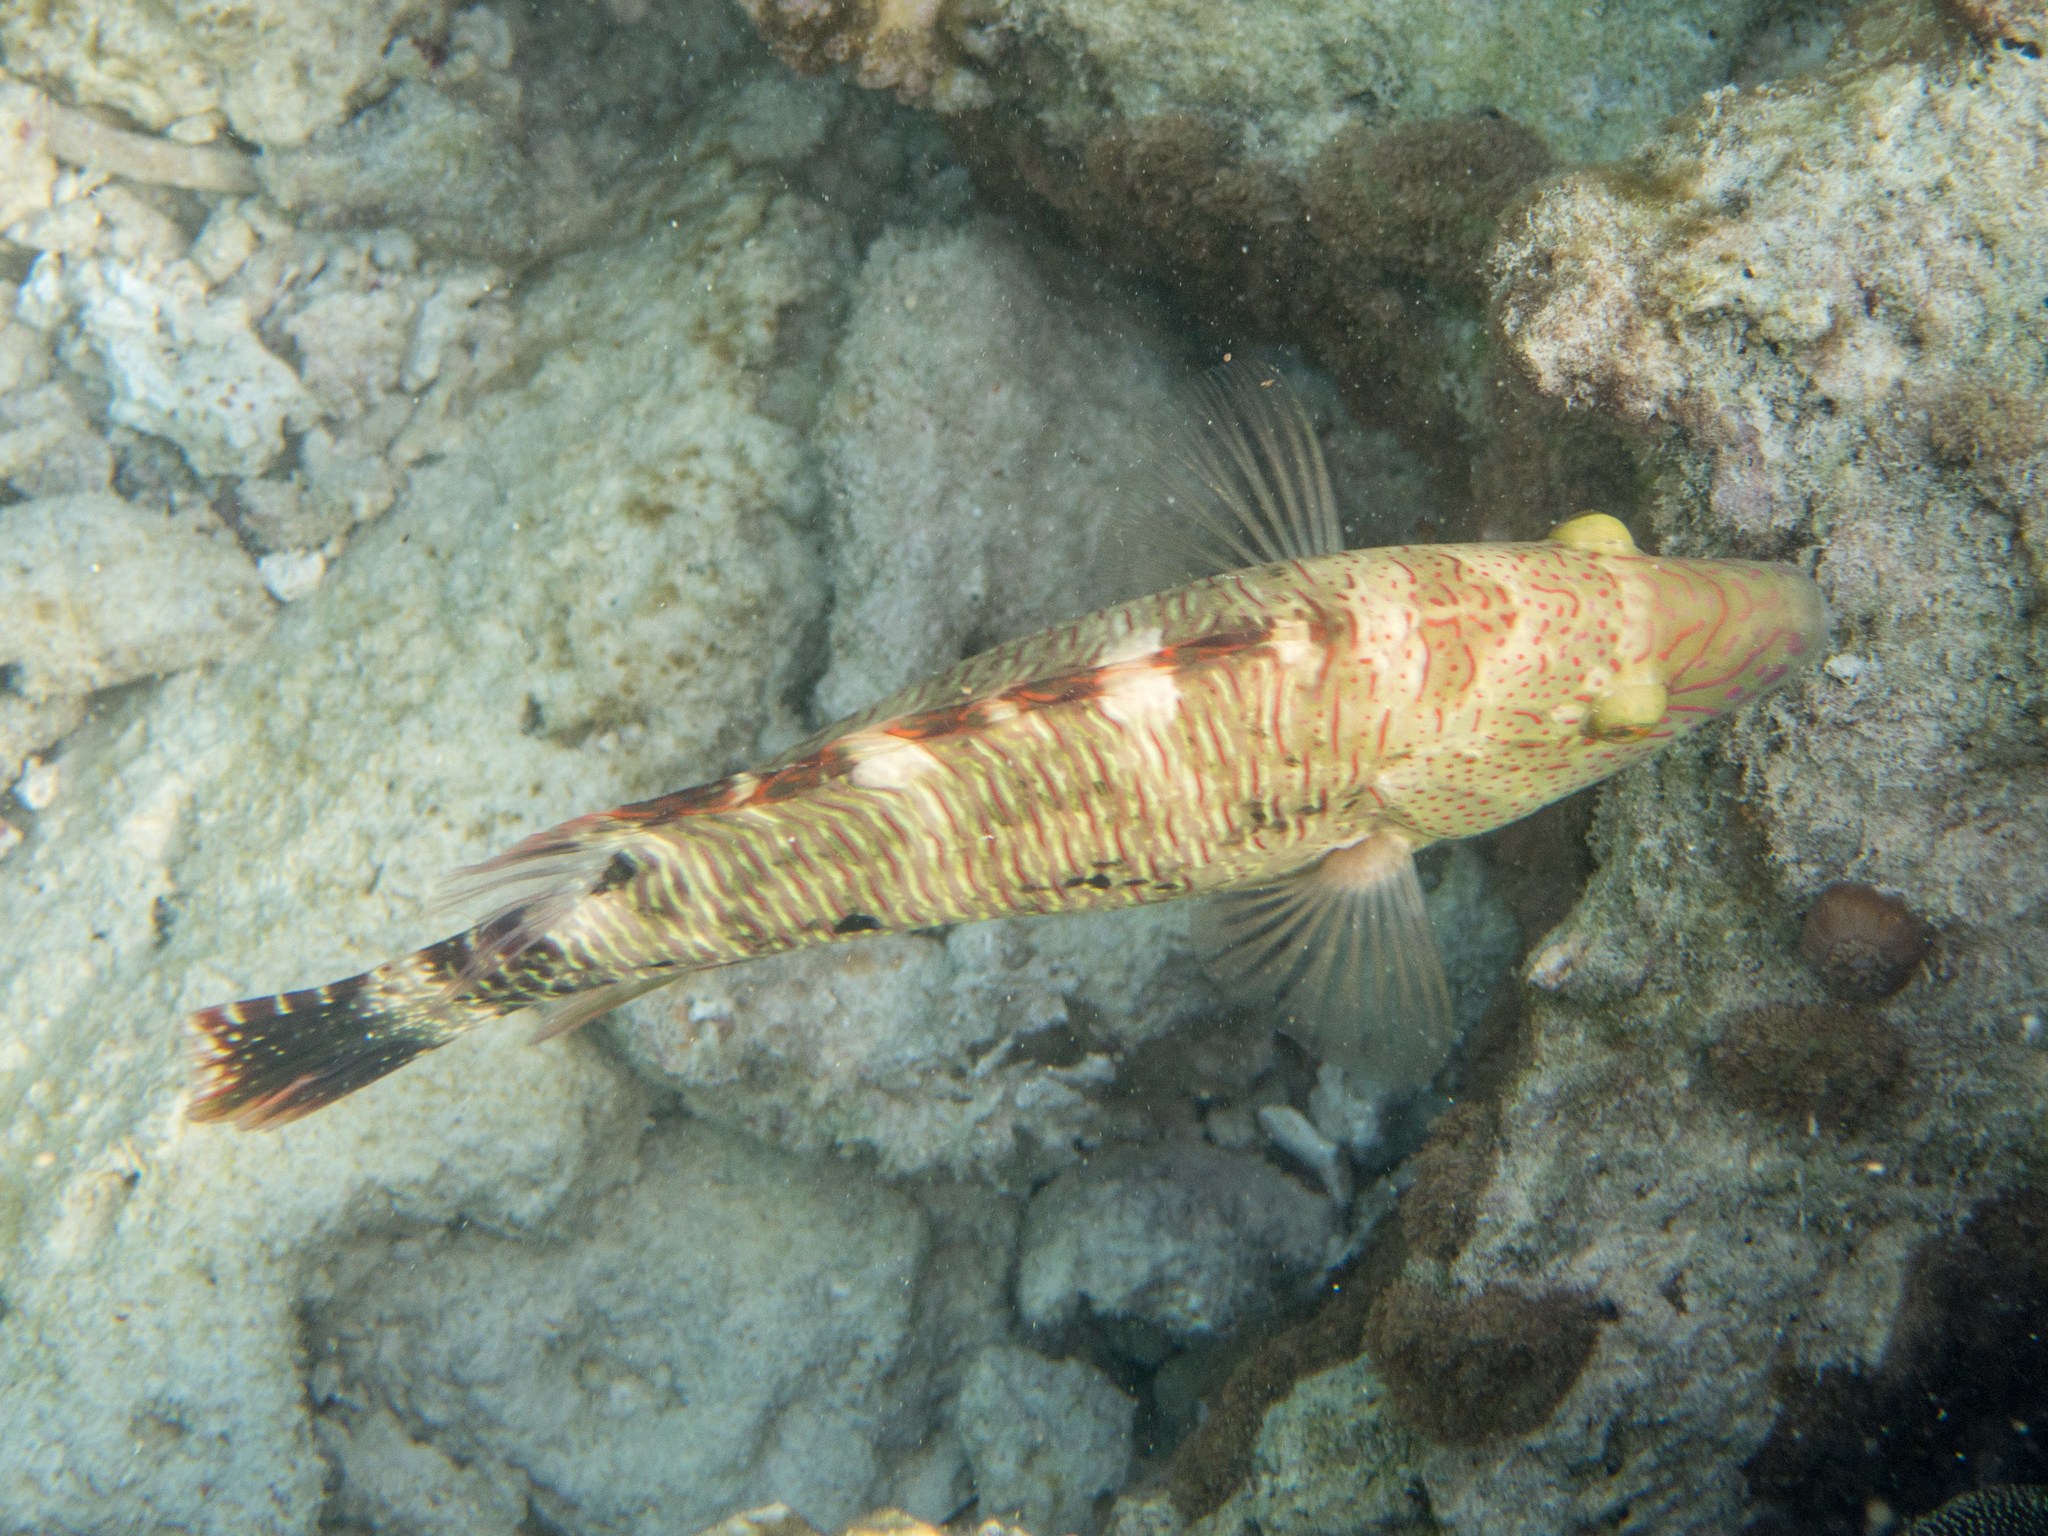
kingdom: Animalia
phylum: Chordata
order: Perciformes
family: Labridae
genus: Cheilinus
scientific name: Cheilinus trilobatus
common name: Tripletail maori wrasse
